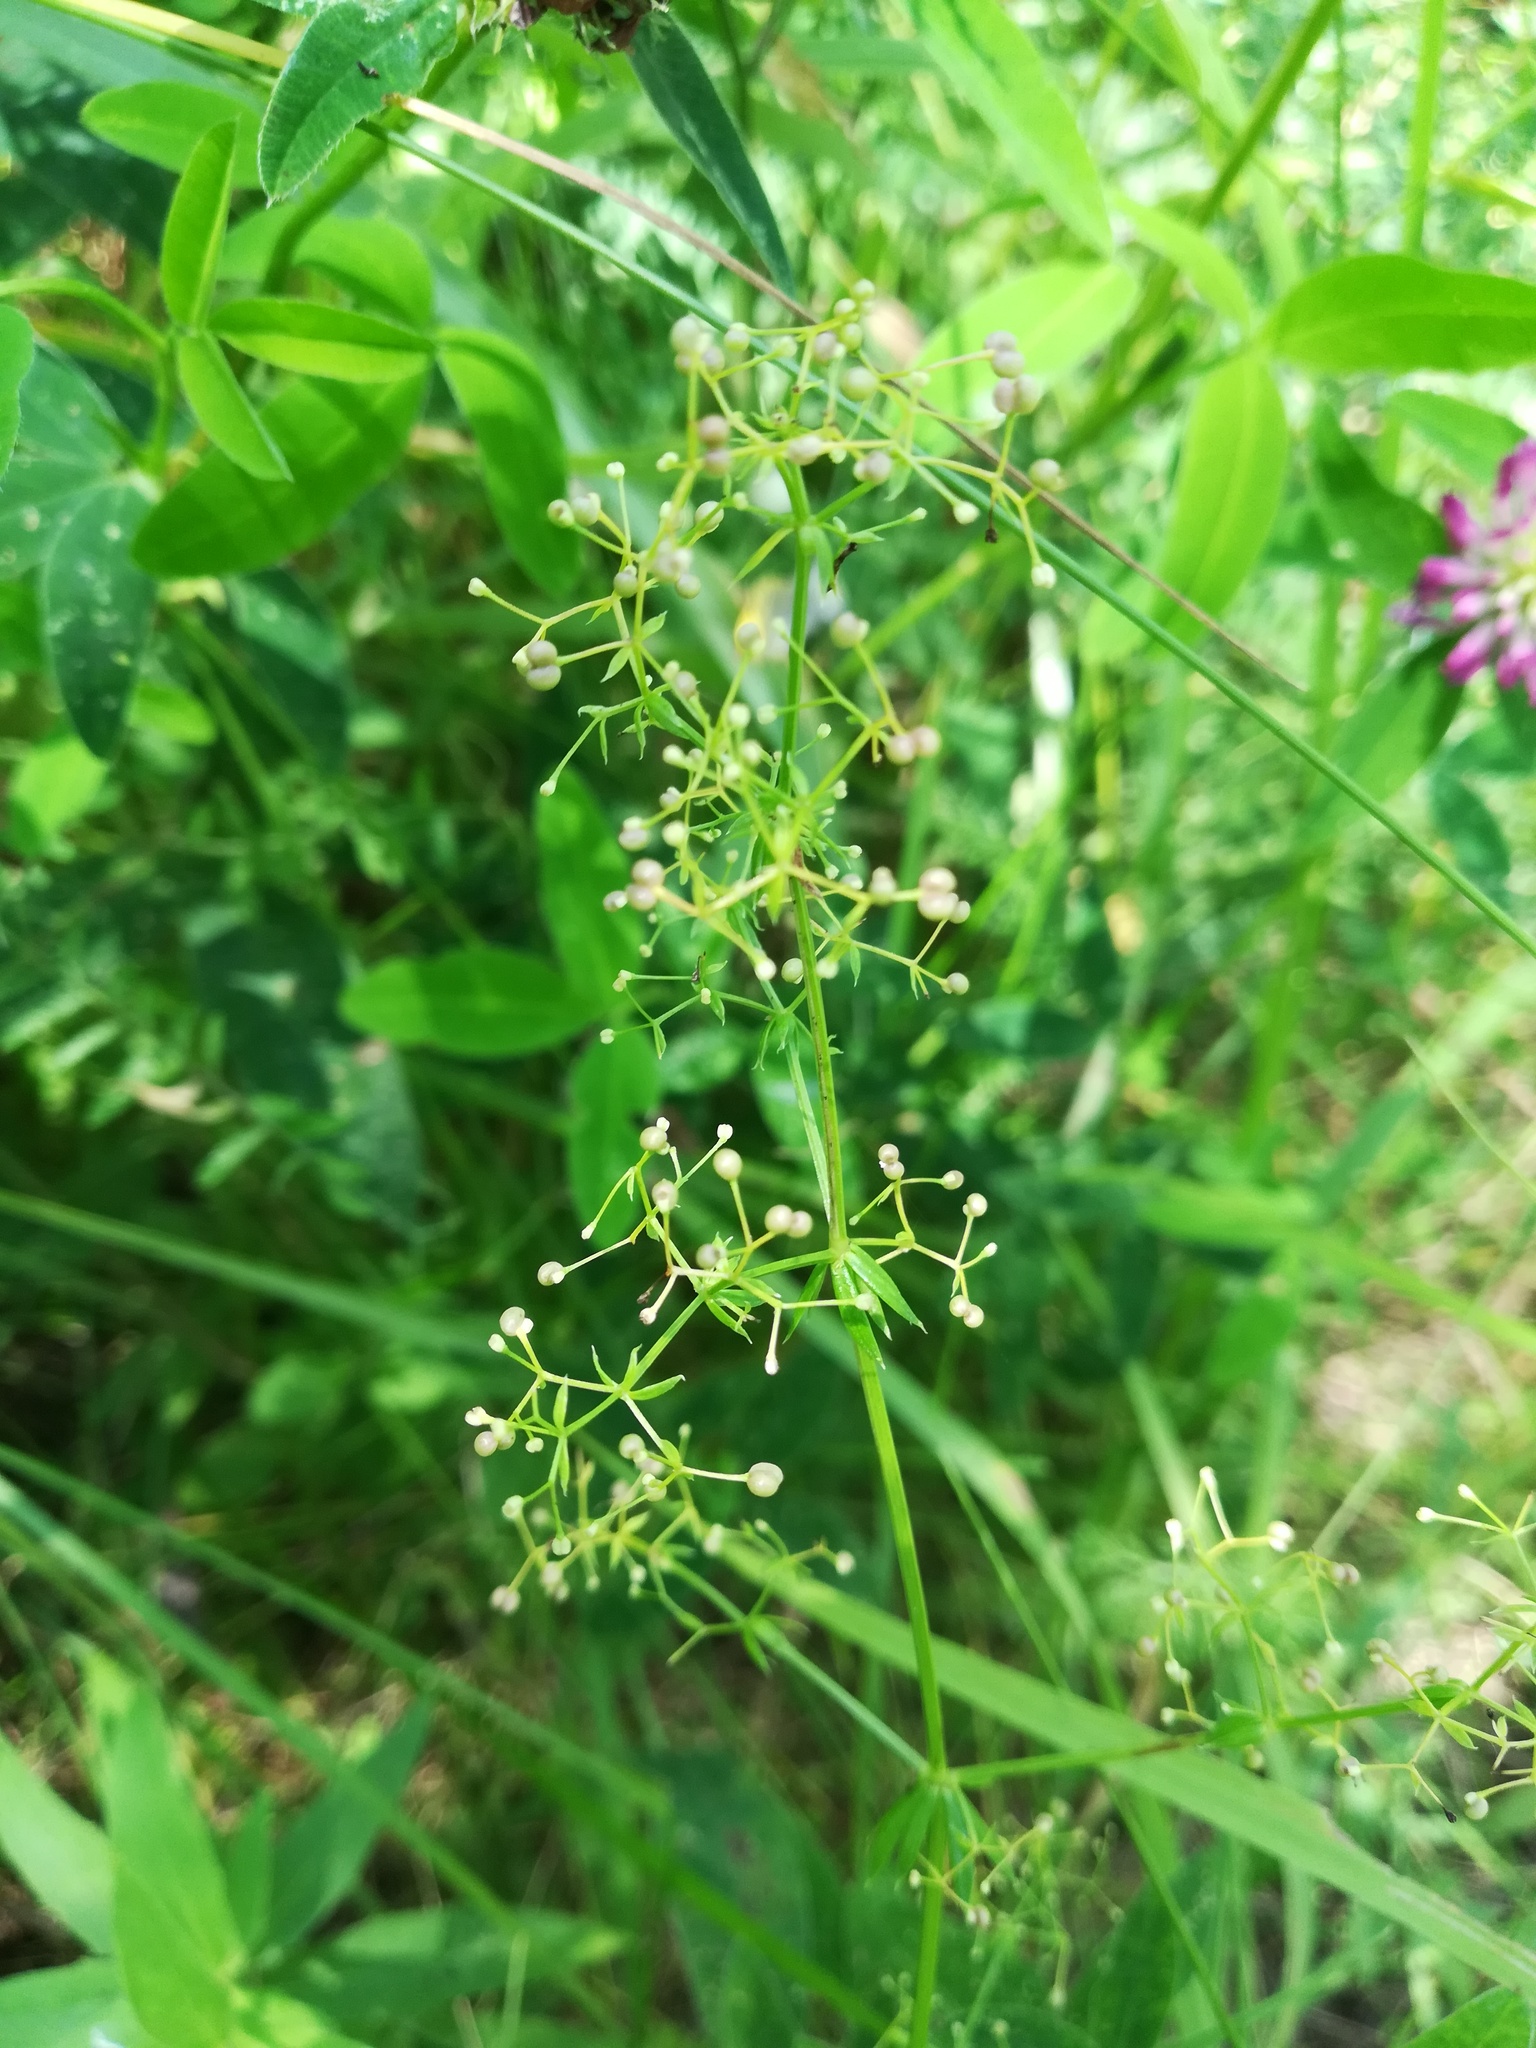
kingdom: Plantae
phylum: Tracheophyta
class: Magnoliopsida
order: Gentianales
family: Rubiaceae
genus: Galium
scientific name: Galium mollugo
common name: Hedge bedstraw
